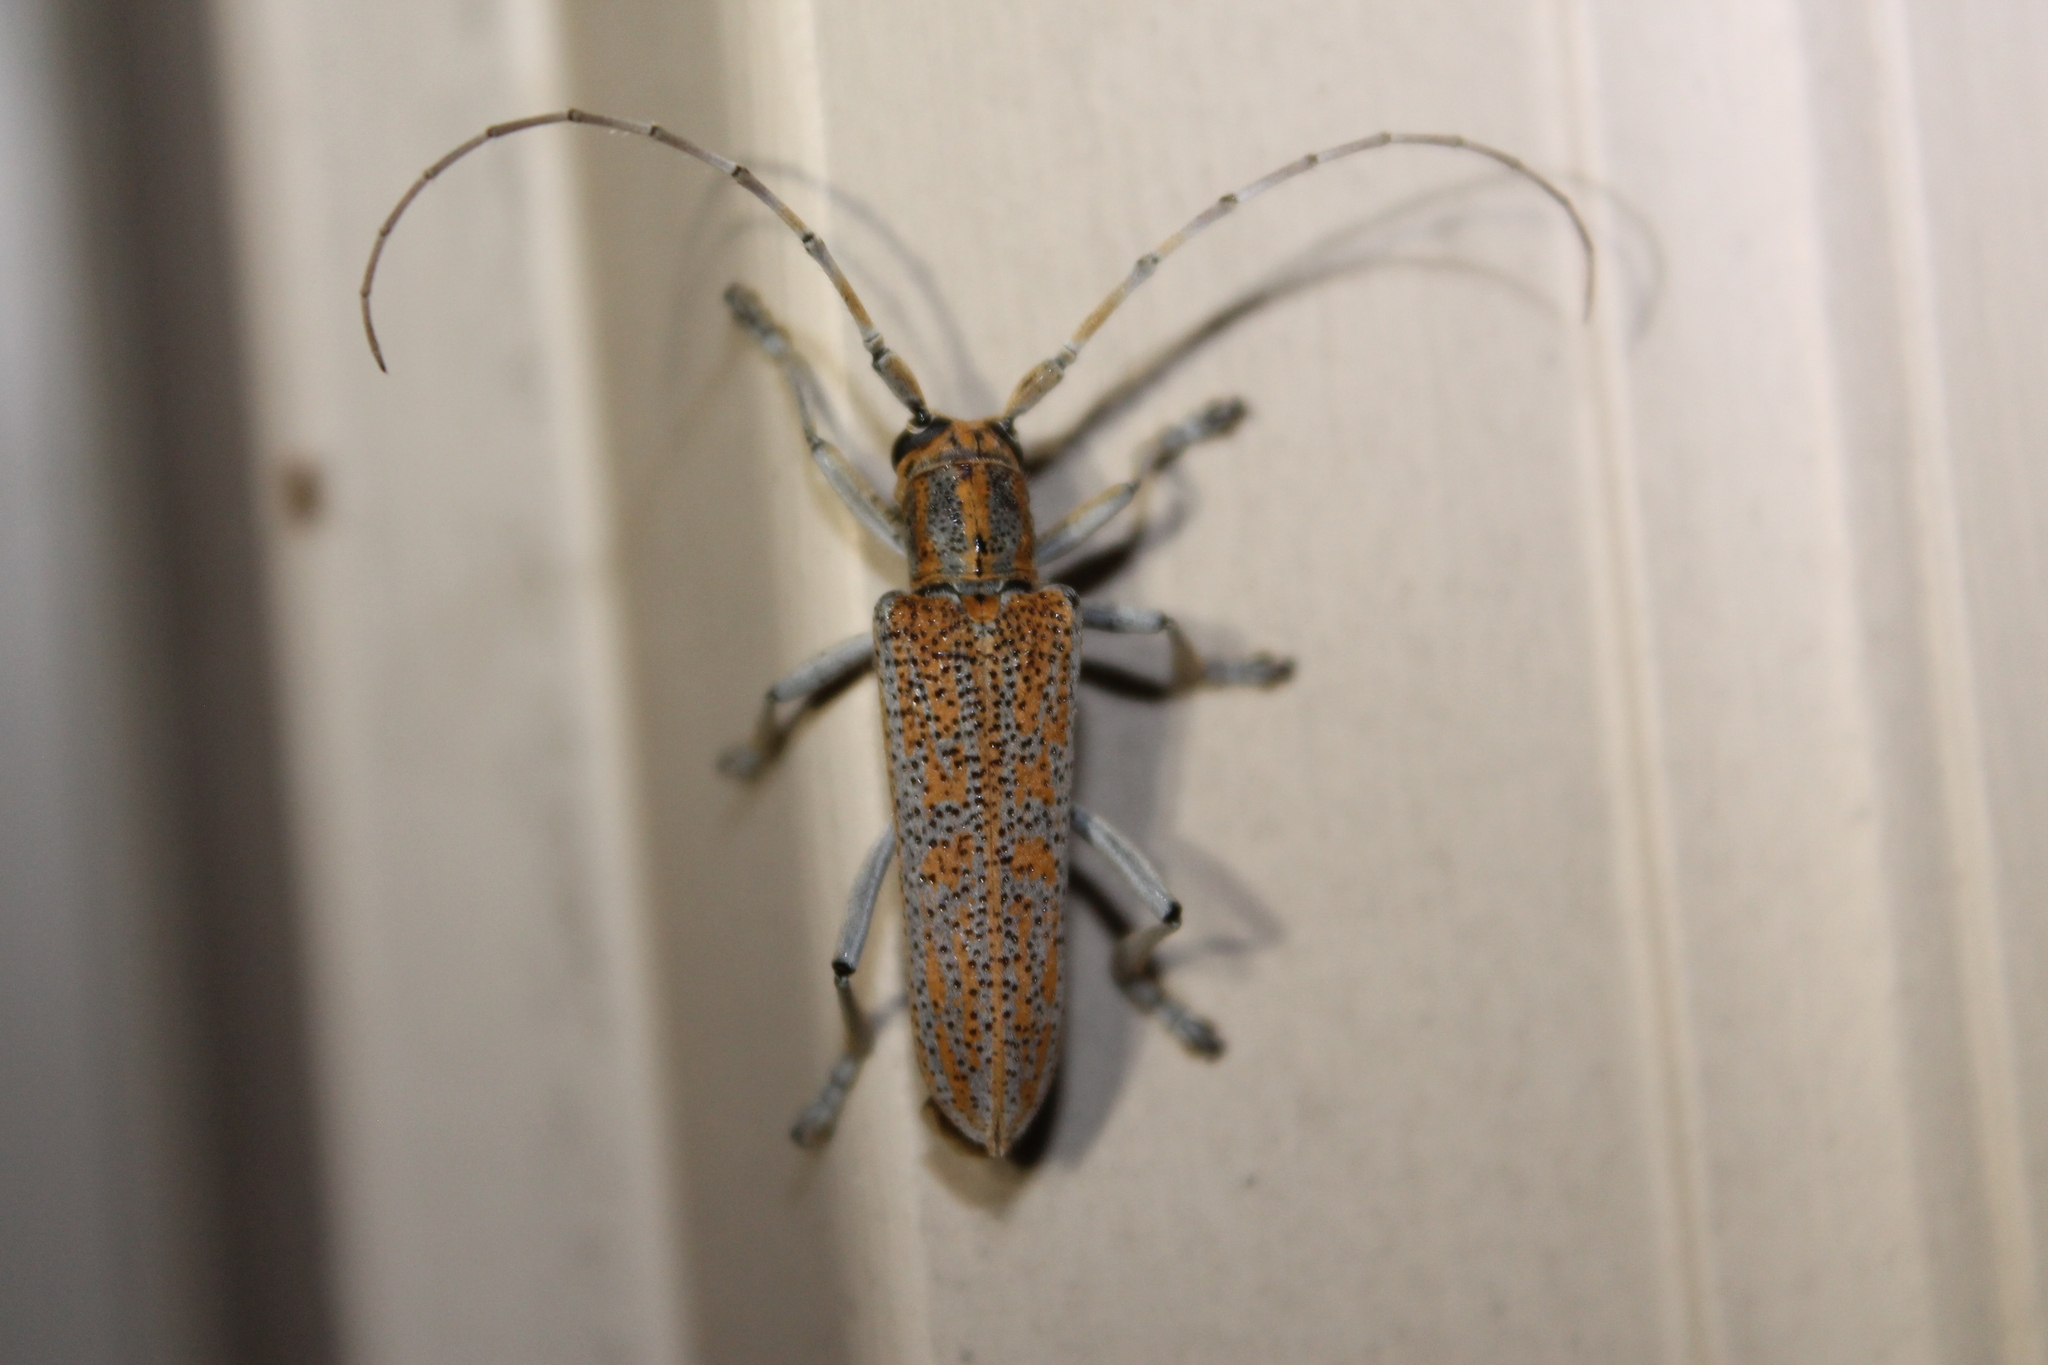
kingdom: Animalia
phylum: Arthropoda
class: Insecta
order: Coleoptera
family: Cerambycidae
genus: Saperda
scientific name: Saperda calcarata
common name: Poplar borer
